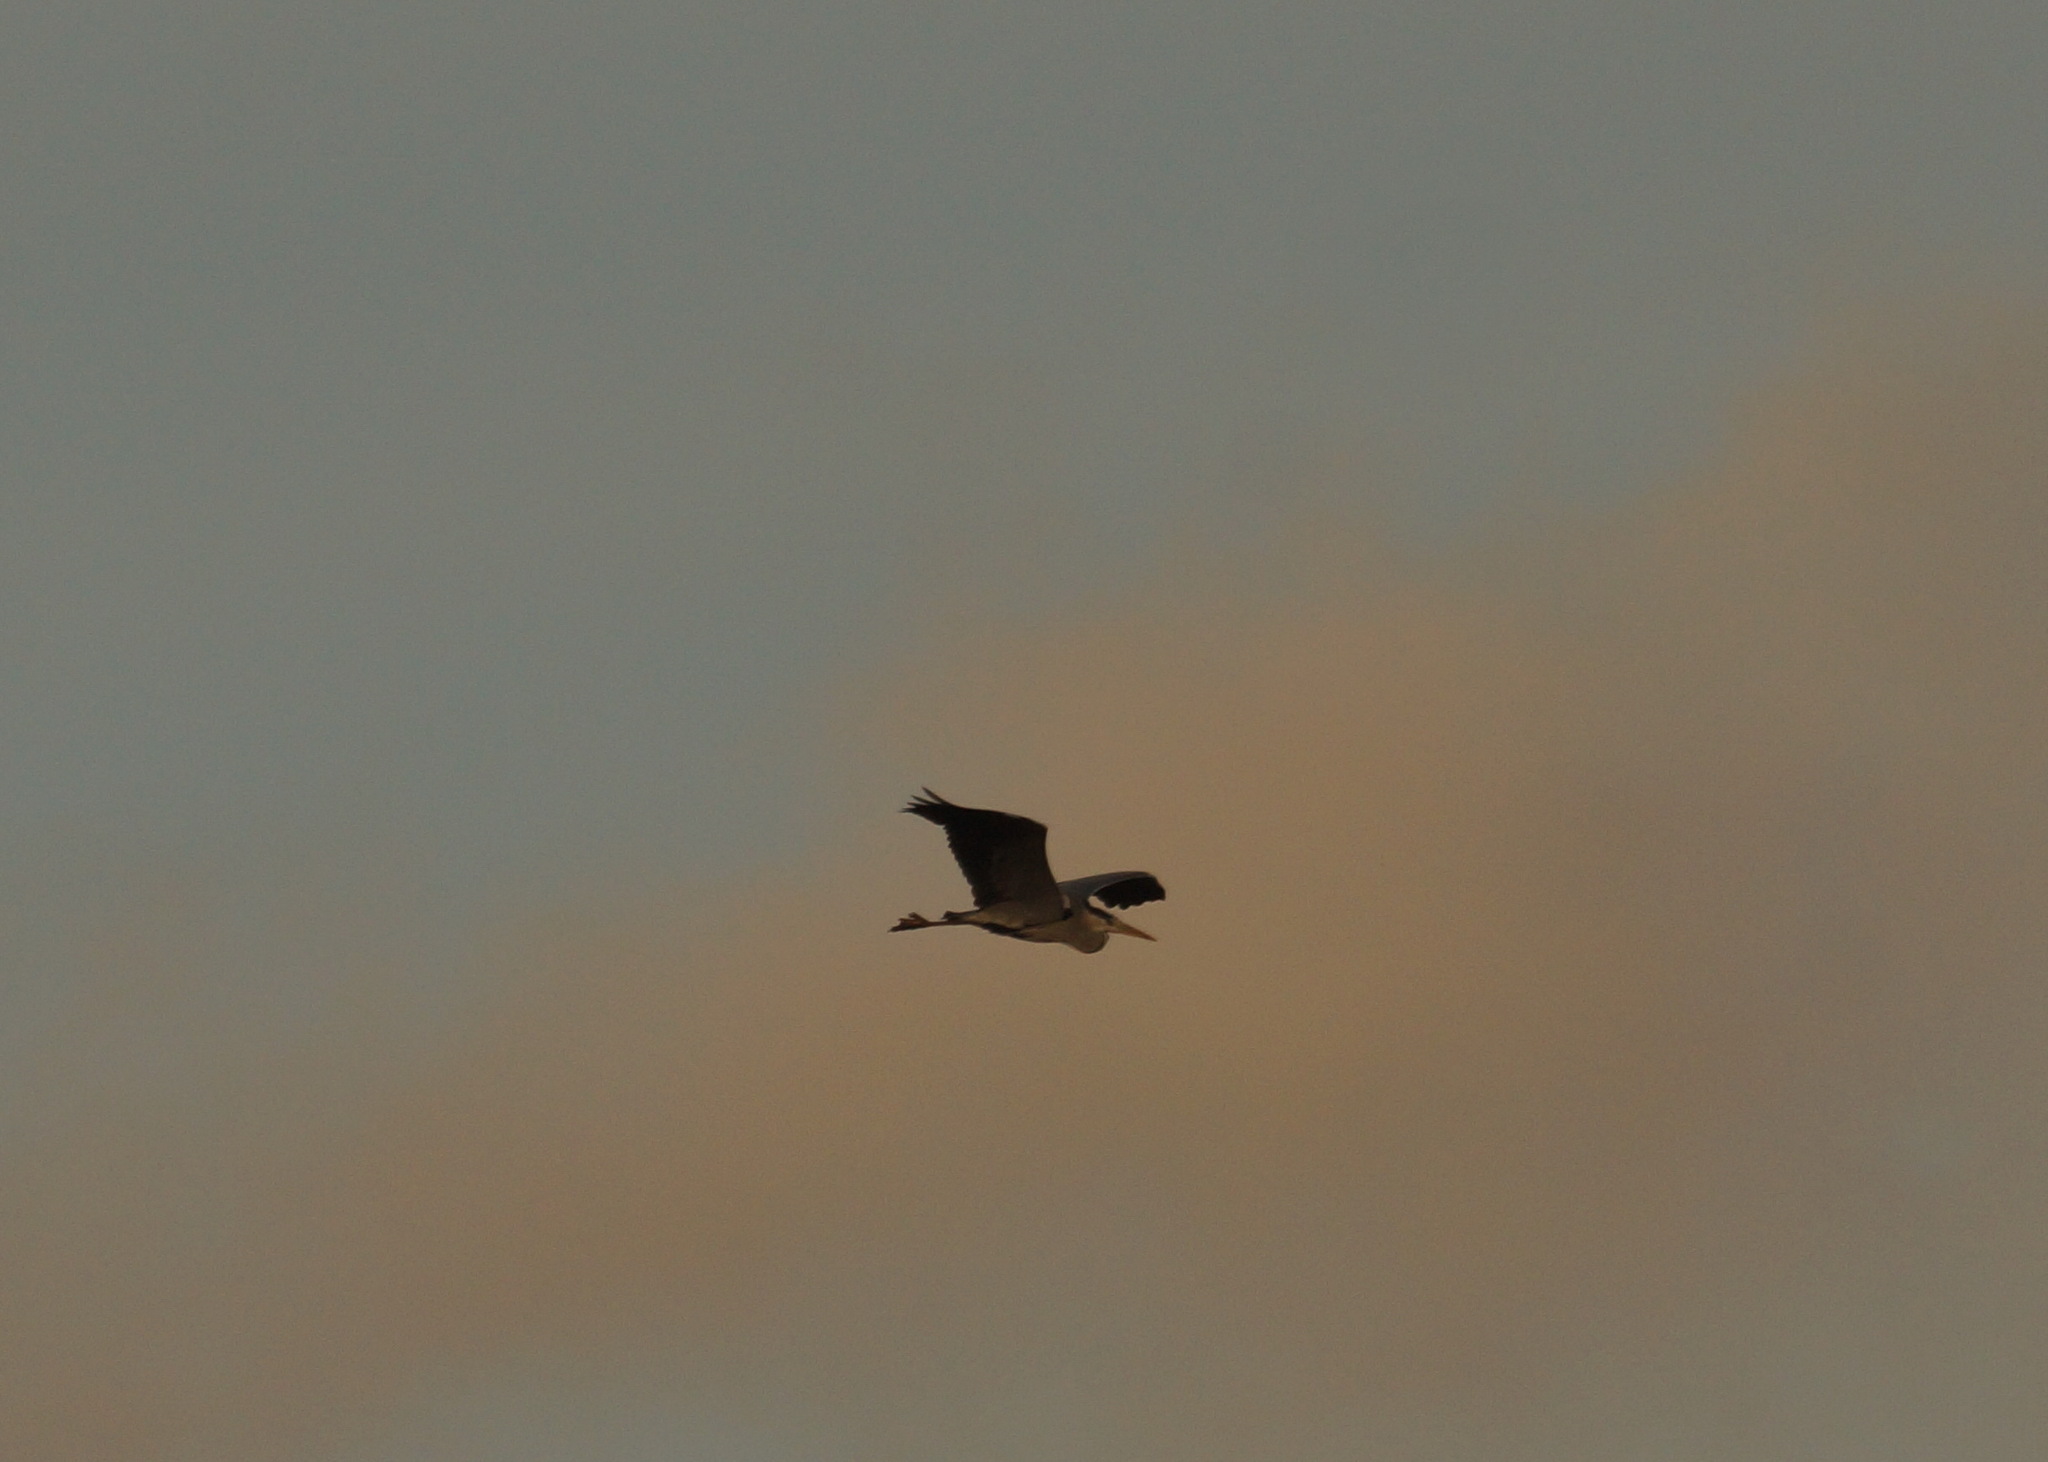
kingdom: Animalia
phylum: Chordata
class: Aves
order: Pelecaniformes
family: Ardeidae
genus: Ardea
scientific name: Ardea cinerea
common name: Grey heron
